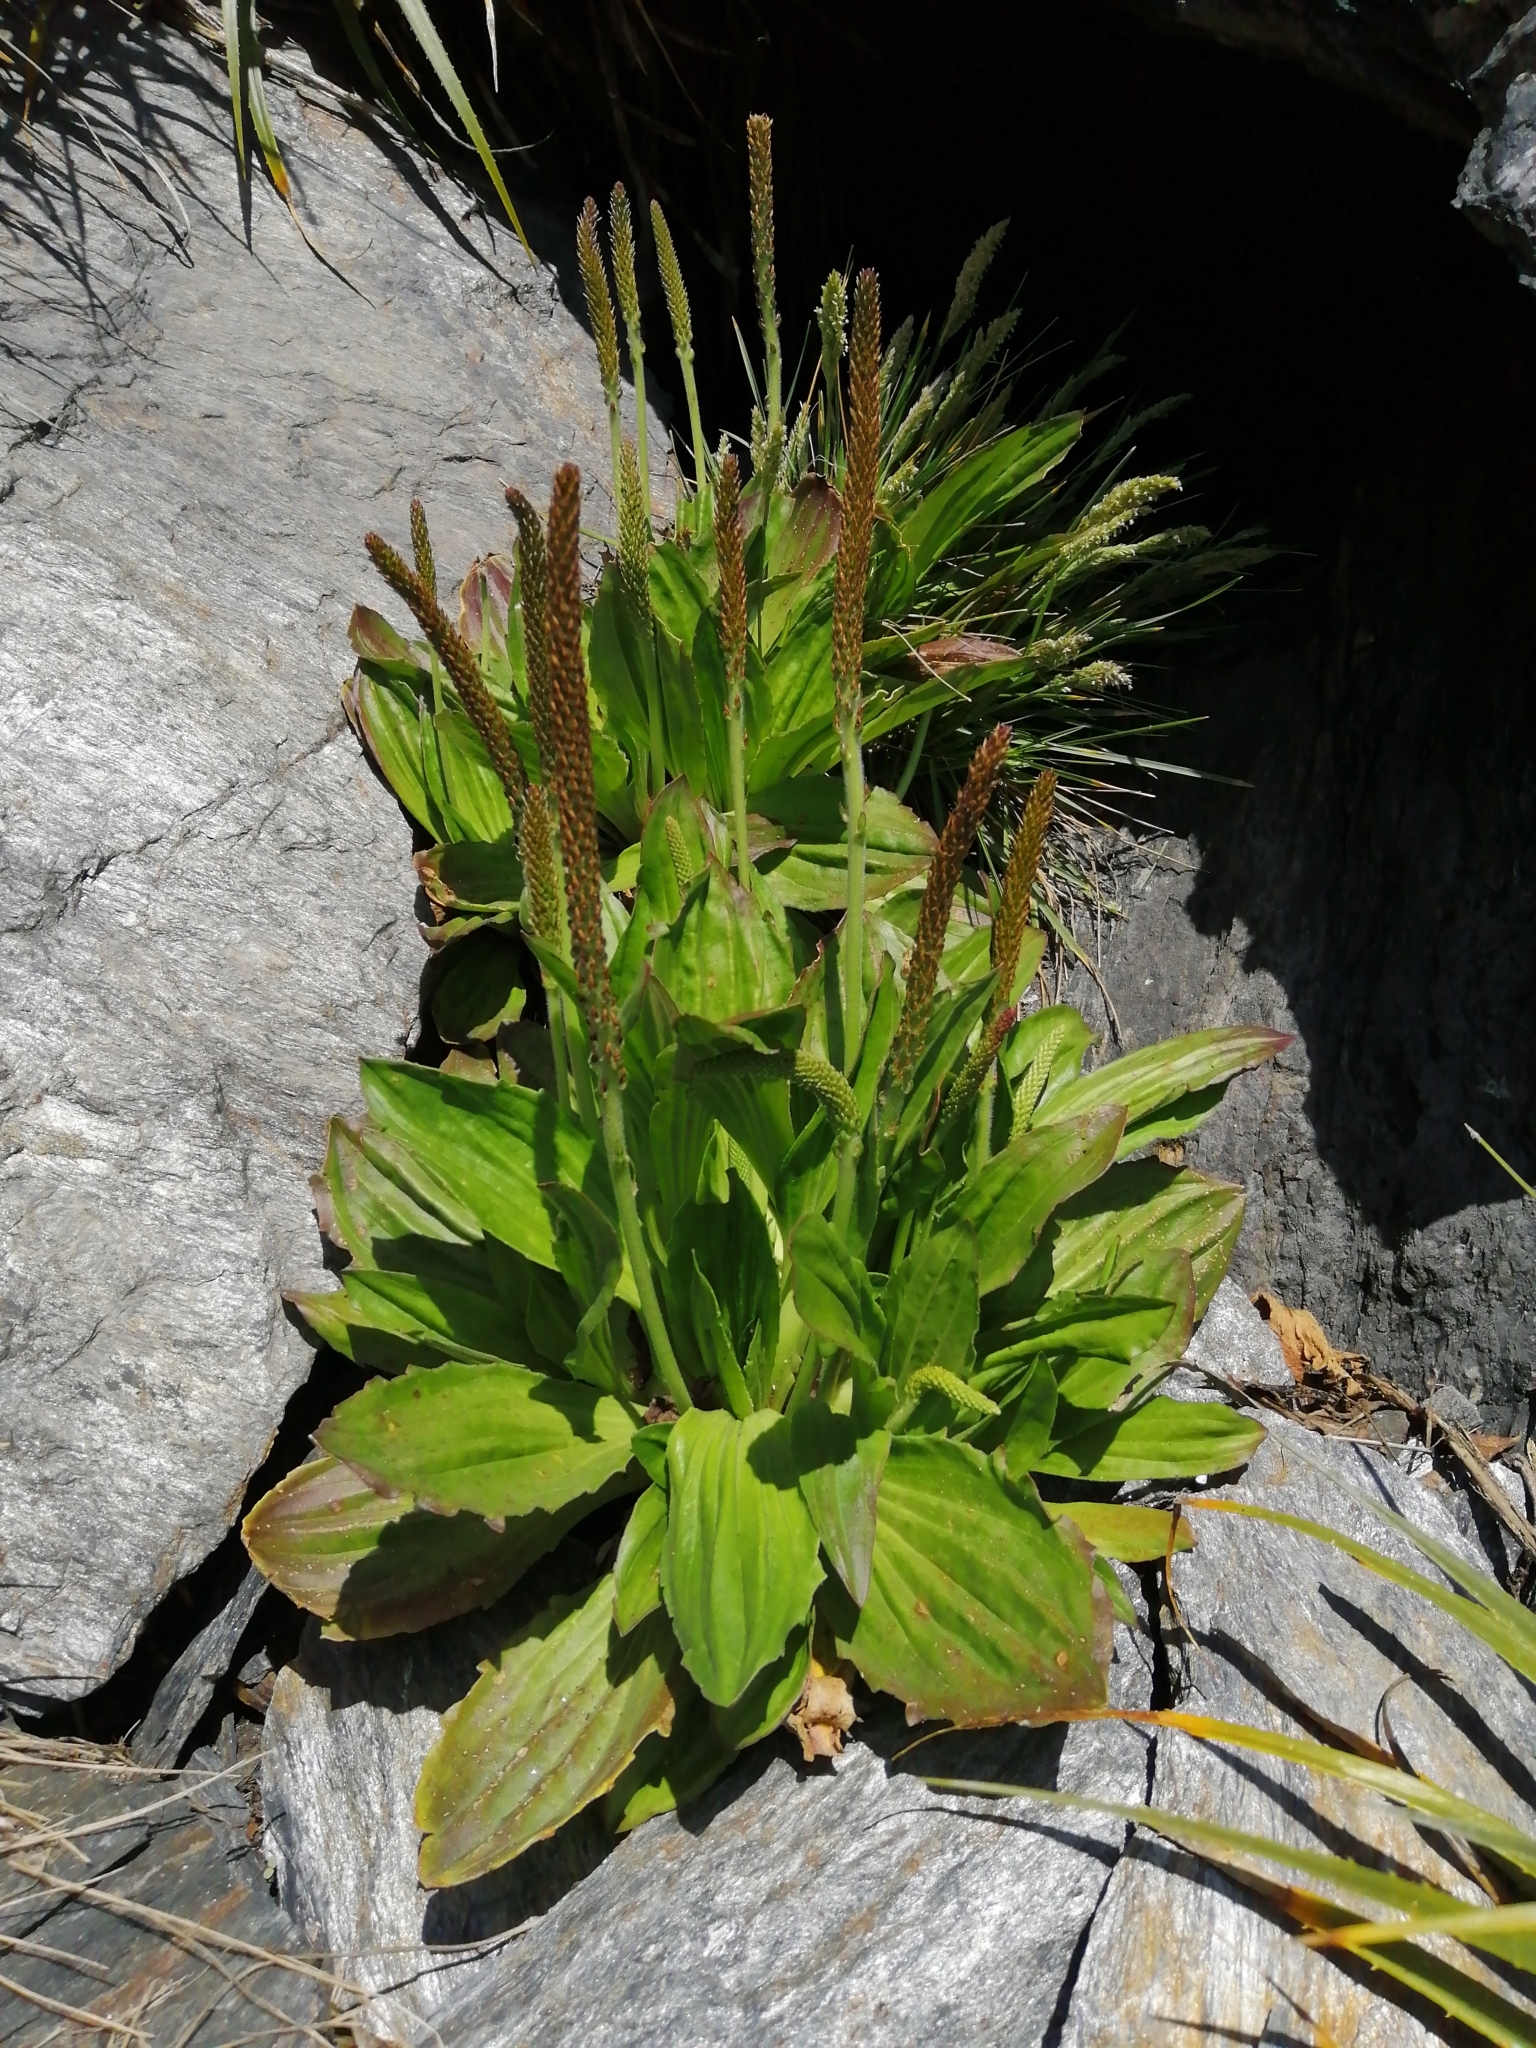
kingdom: Plantae
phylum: Tracheophyta
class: Magnoliopsida
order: Lamiales
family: Plantaginaceae
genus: Plantago
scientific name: Plantago major
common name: Common plantain
